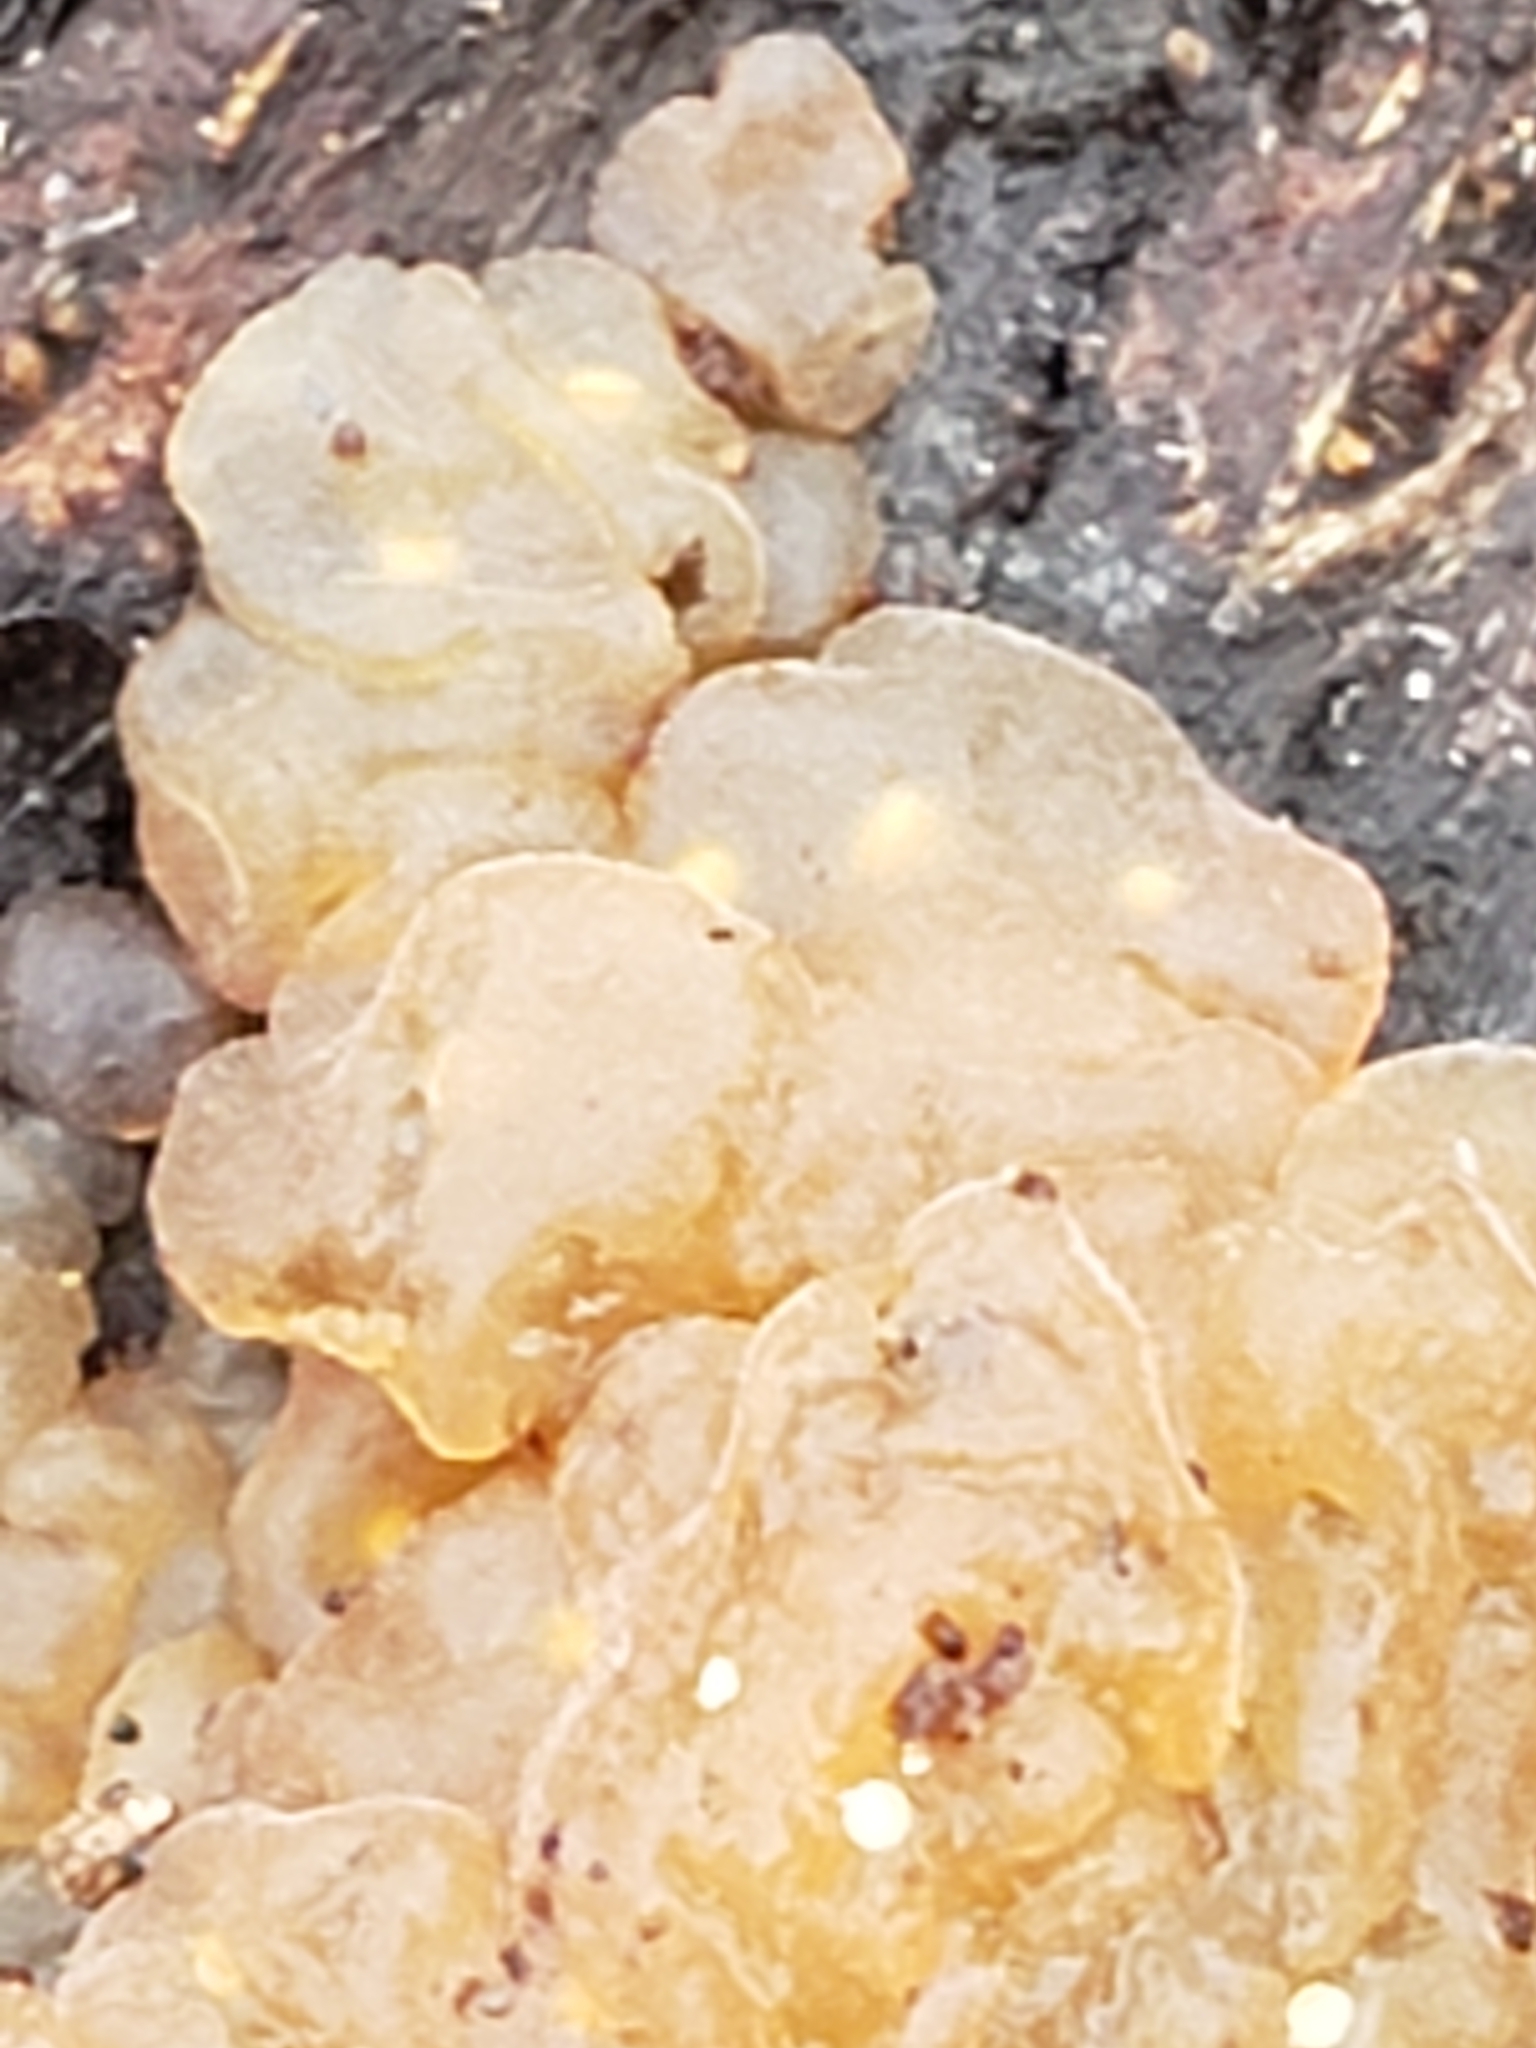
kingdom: Fungi
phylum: Basidiomycota
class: Agaricomycetes
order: Auriculariales
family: Hyaloriaceae
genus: Myxarium
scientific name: Myxarium nucleatum
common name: Crystal brain fungus
